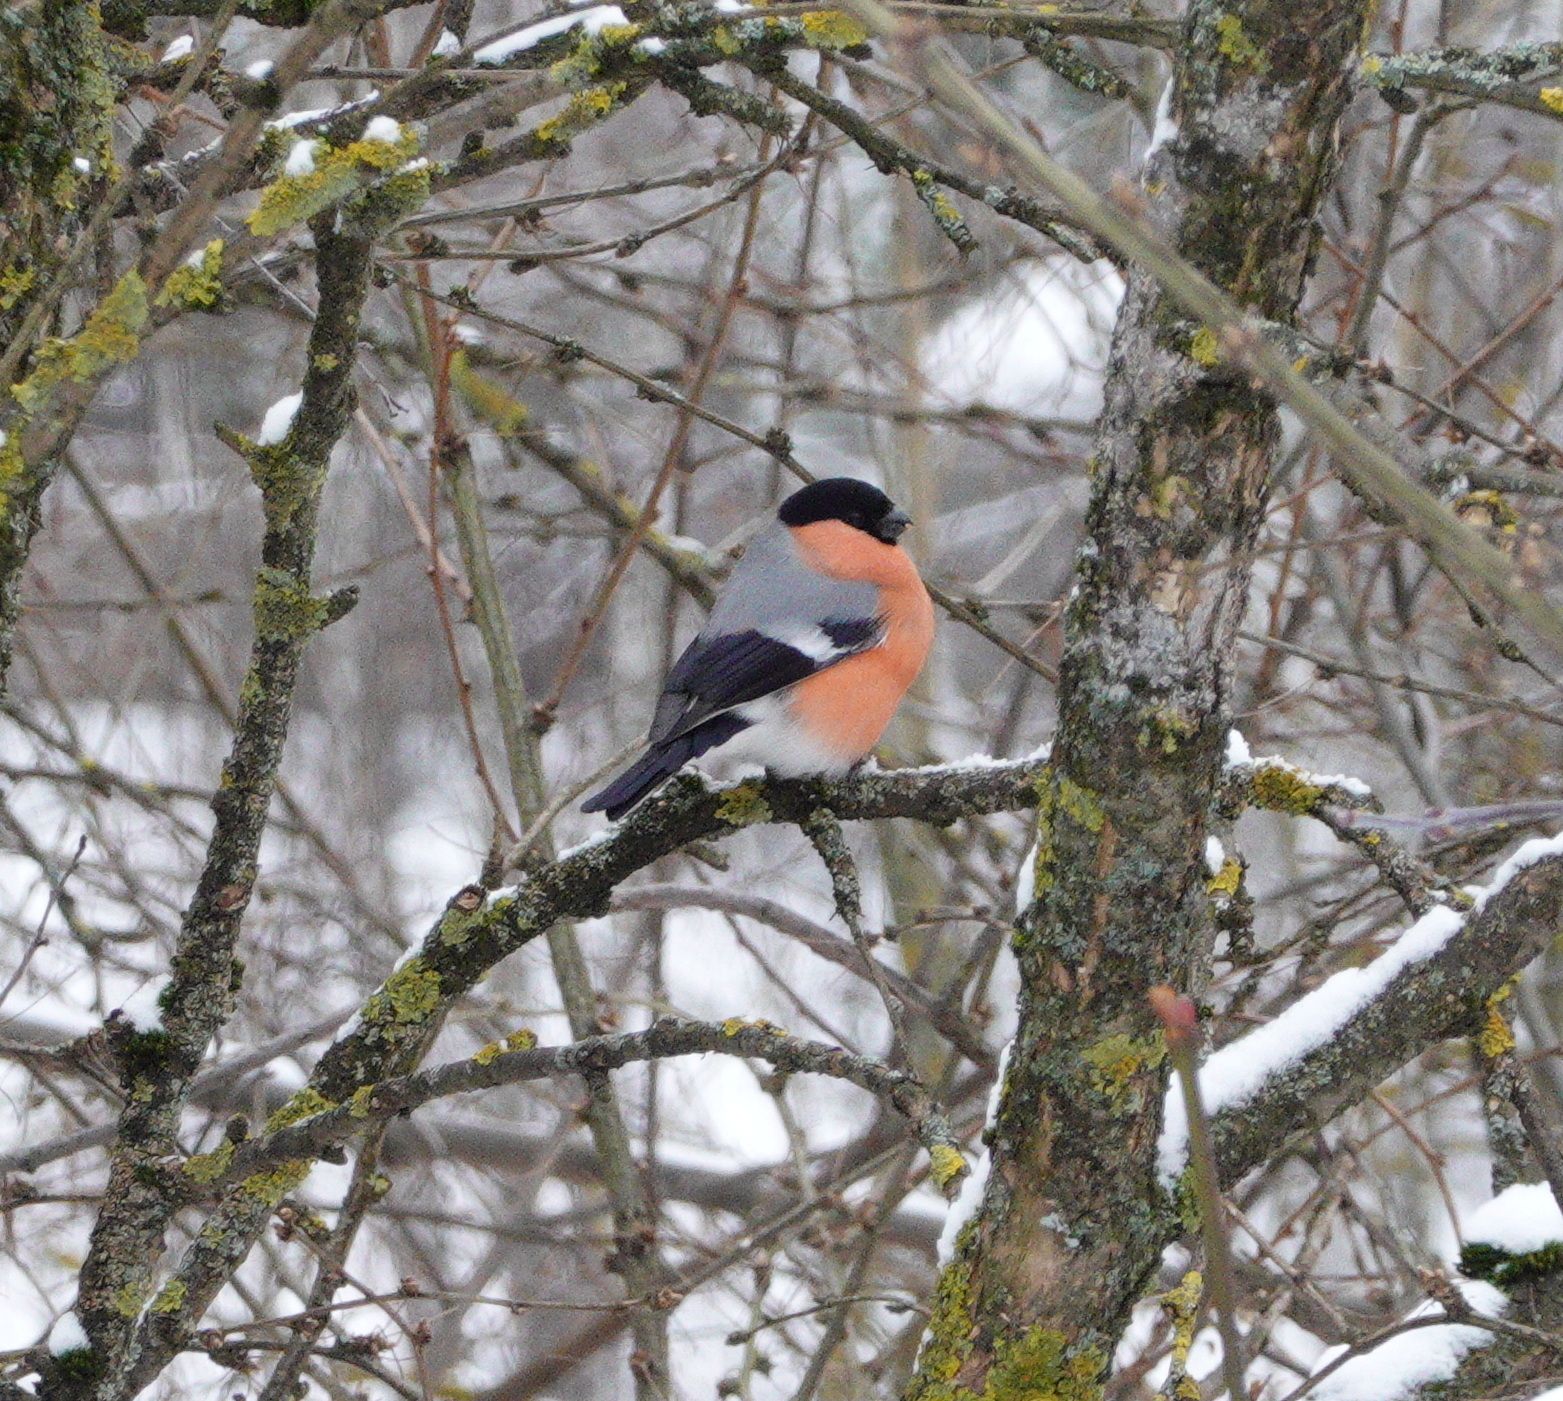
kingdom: Animalia
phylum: Chordata
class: Aves
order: Passeriformes
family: Fringillidae
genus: Pyrrhula
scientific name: Pyrrhula pyrrhula
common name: Eurasian bullfinch
